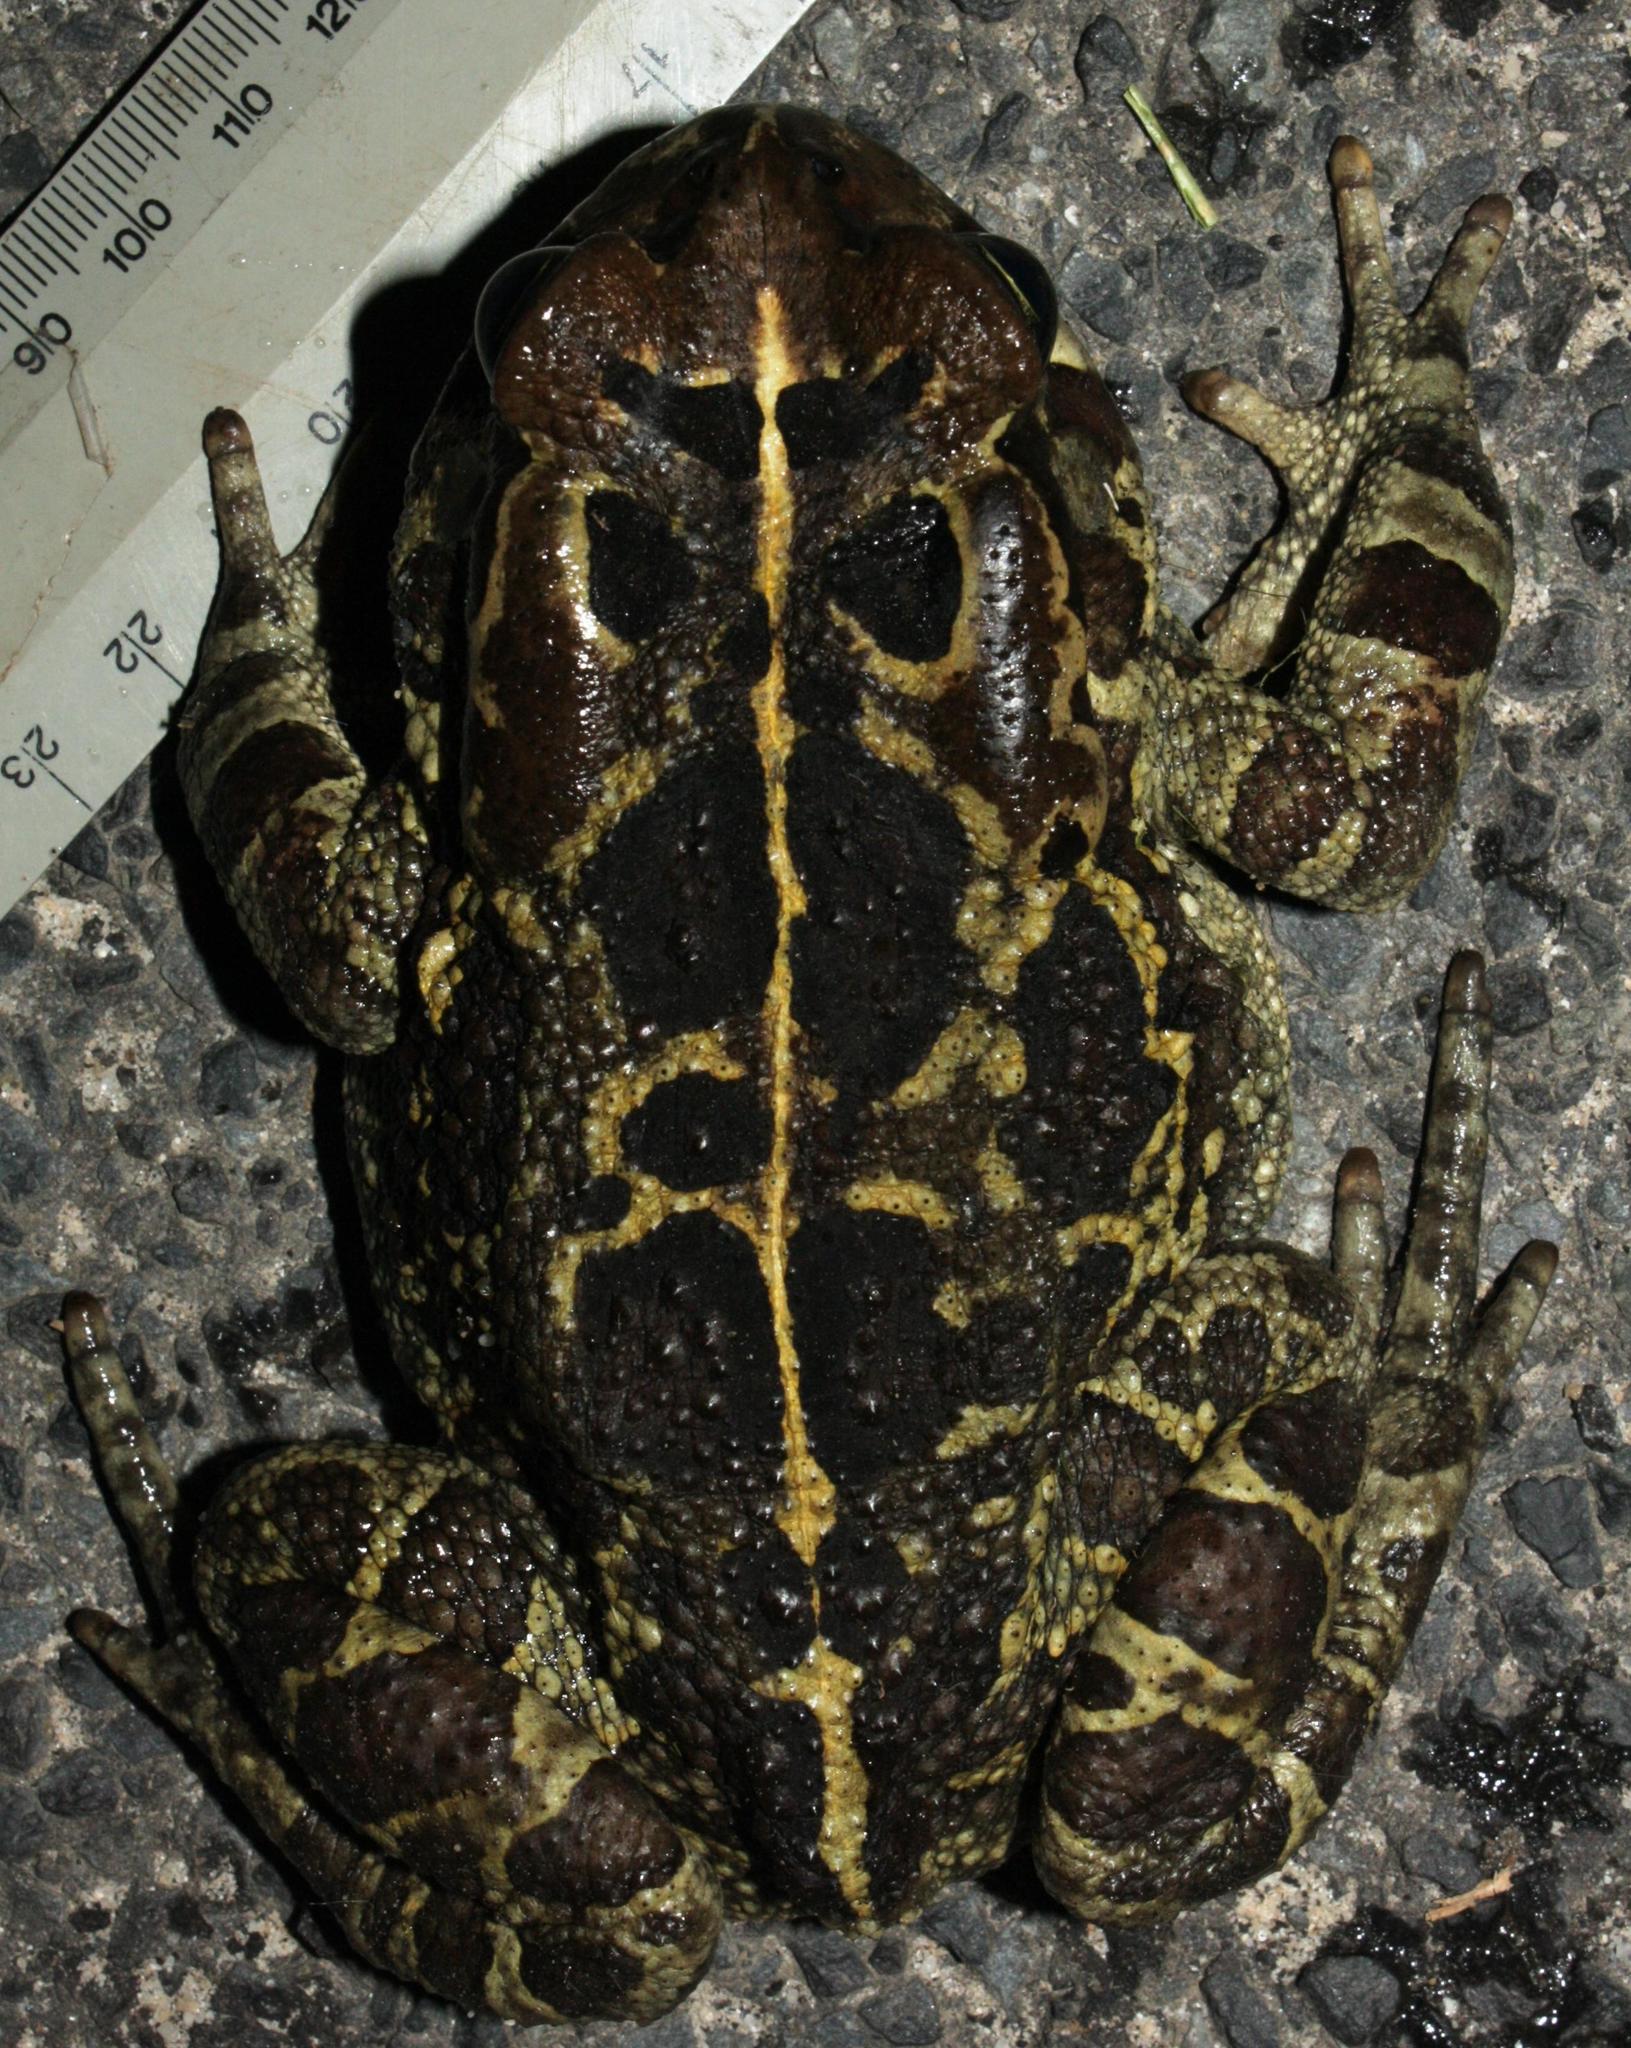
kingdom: Animalia
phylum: Chordata
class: Amphibia
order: Anura
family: Bufonidae
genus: Sclerophrys
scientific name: Sclerophrys pantherina
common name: Panther toad
